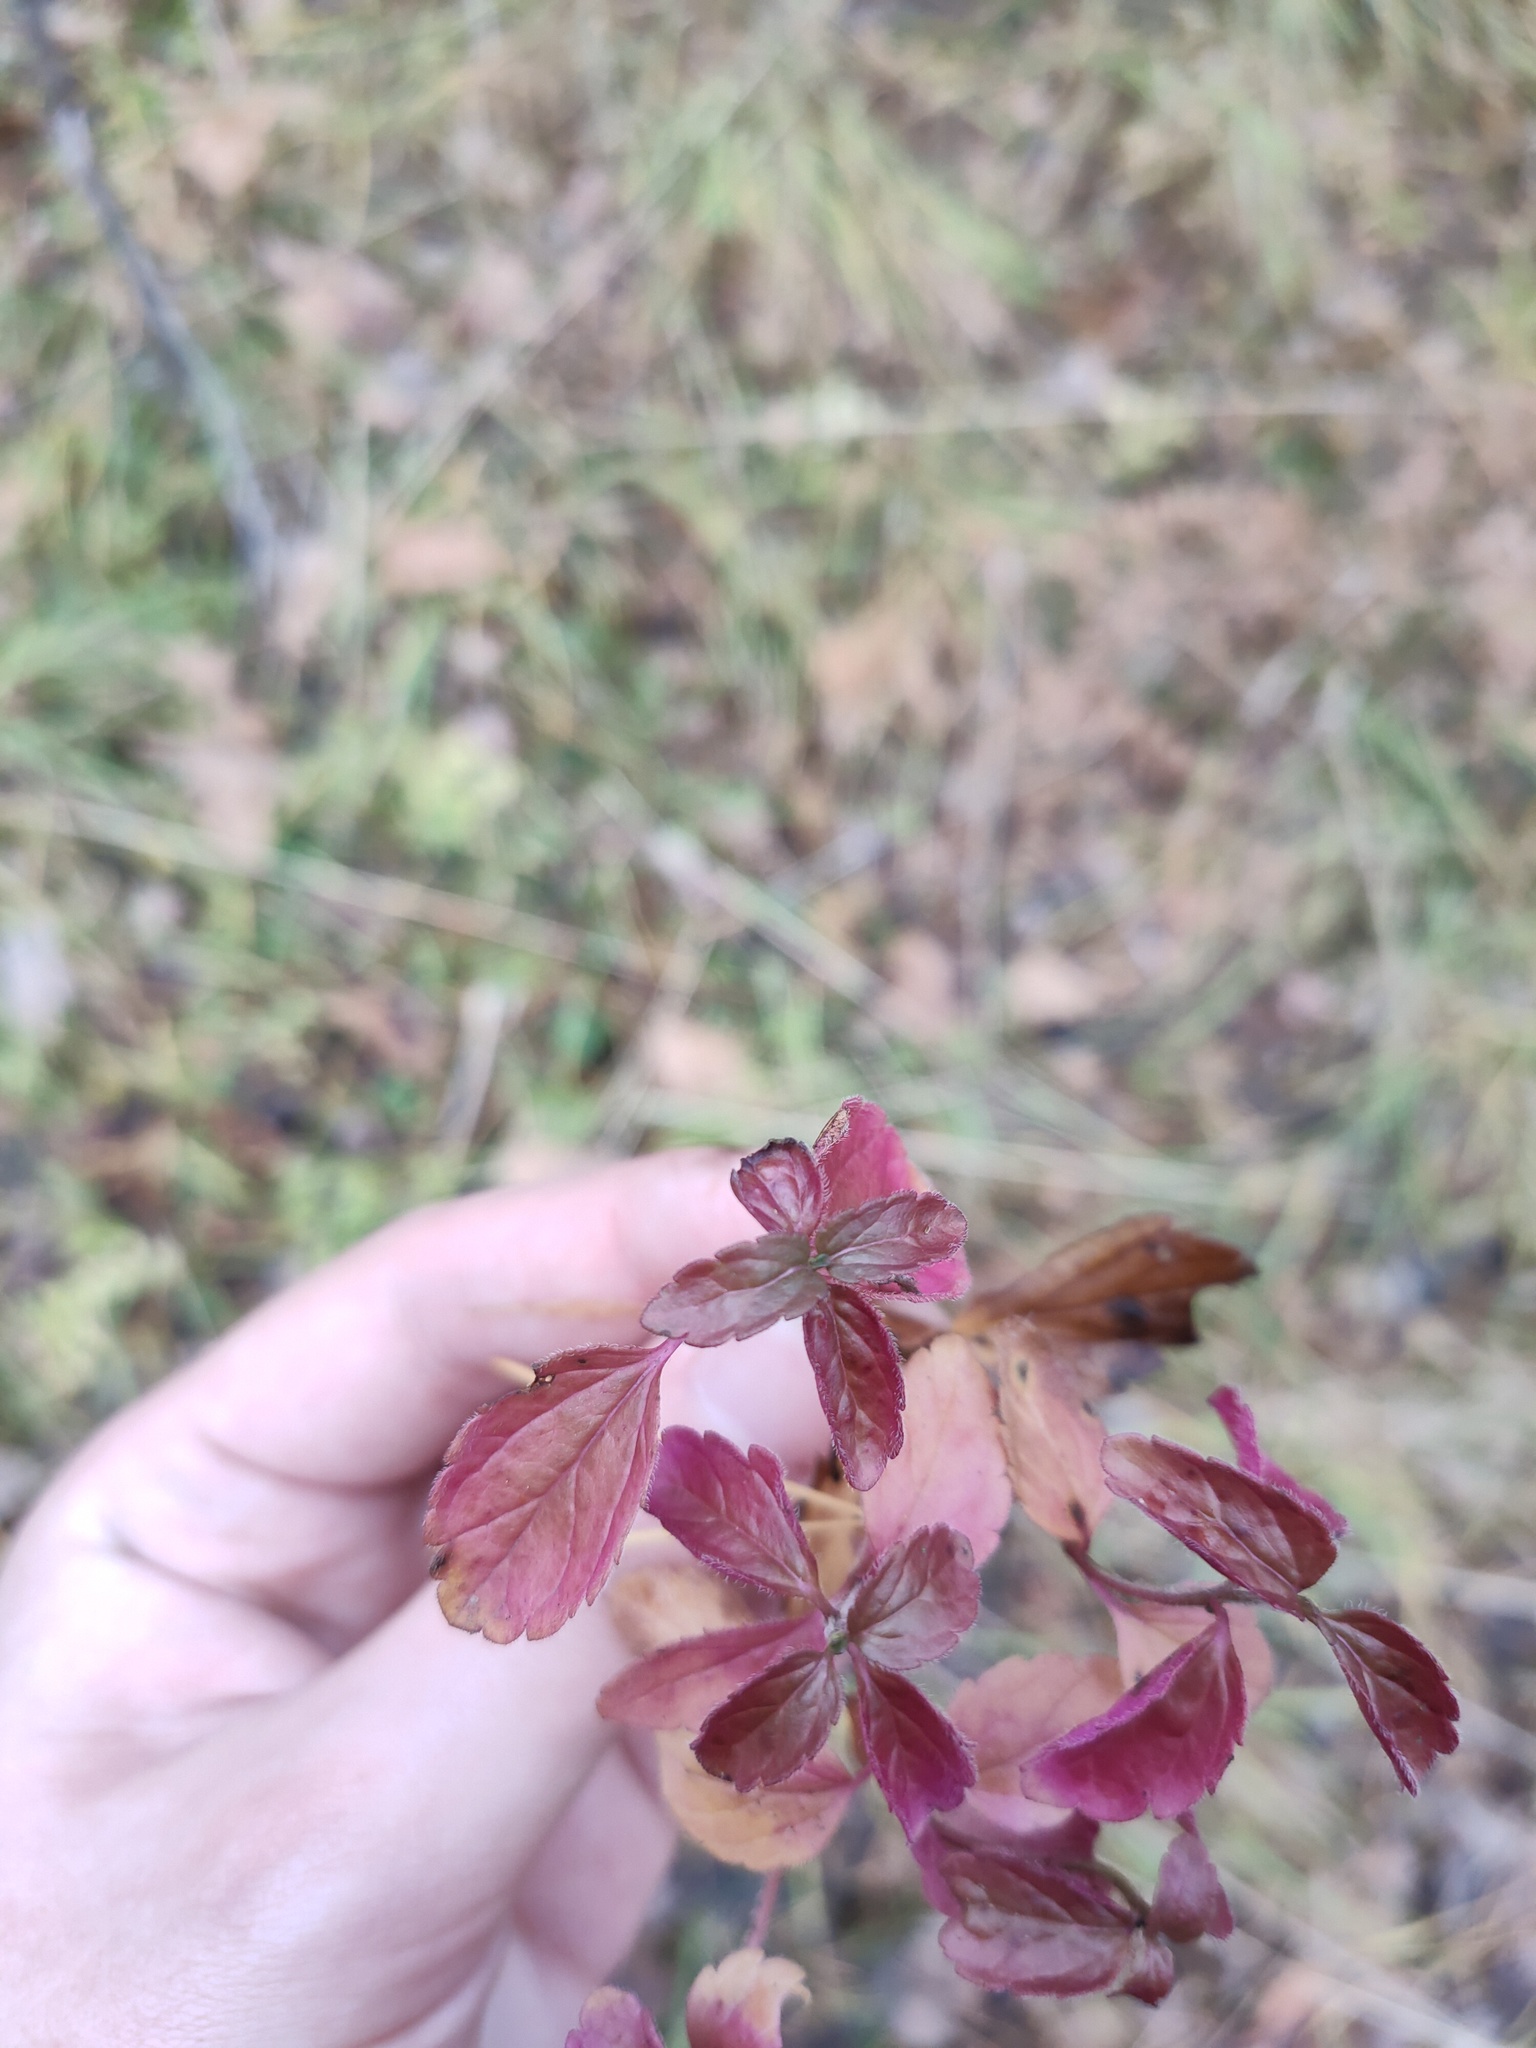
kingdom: Plantae
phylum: Tracheophyta
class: Magnoliopsida
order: Lamiales
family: Plantaginaceae
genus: Veronica
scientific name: Veronica chamaedrys
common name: Germander speedwell
